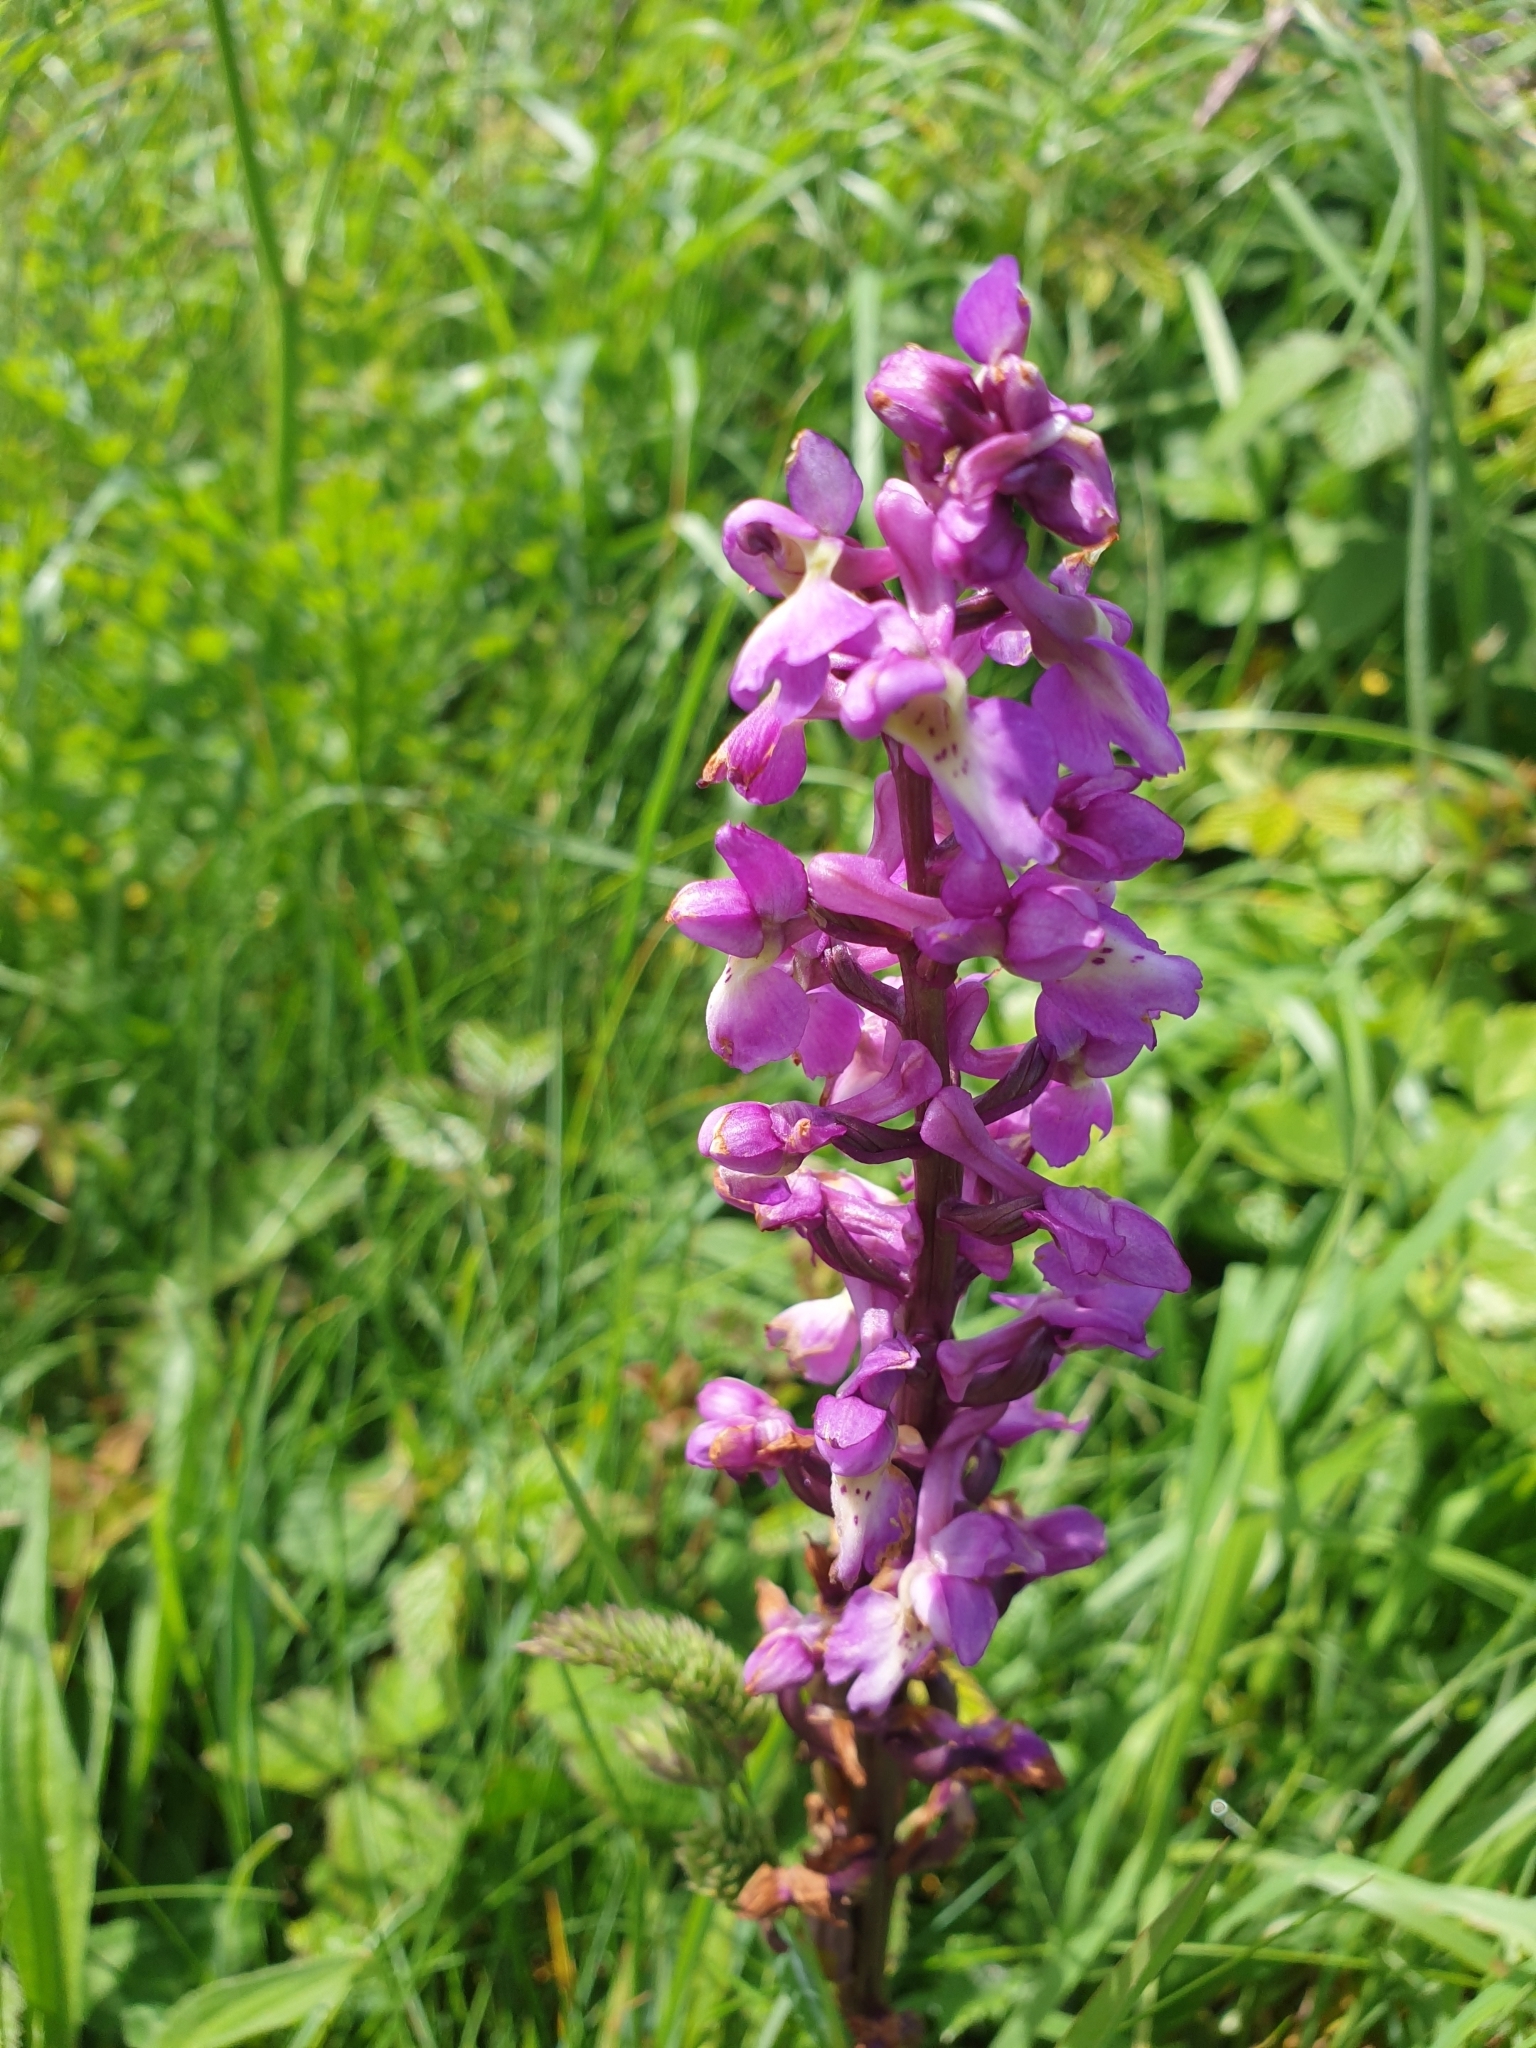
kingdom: Plantae
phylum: Tracheophyta
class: Liliopsida
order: Asparagales
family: Orchidaceae
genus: Orchis
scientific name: Orchis mascula
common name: Early-purple orchid
